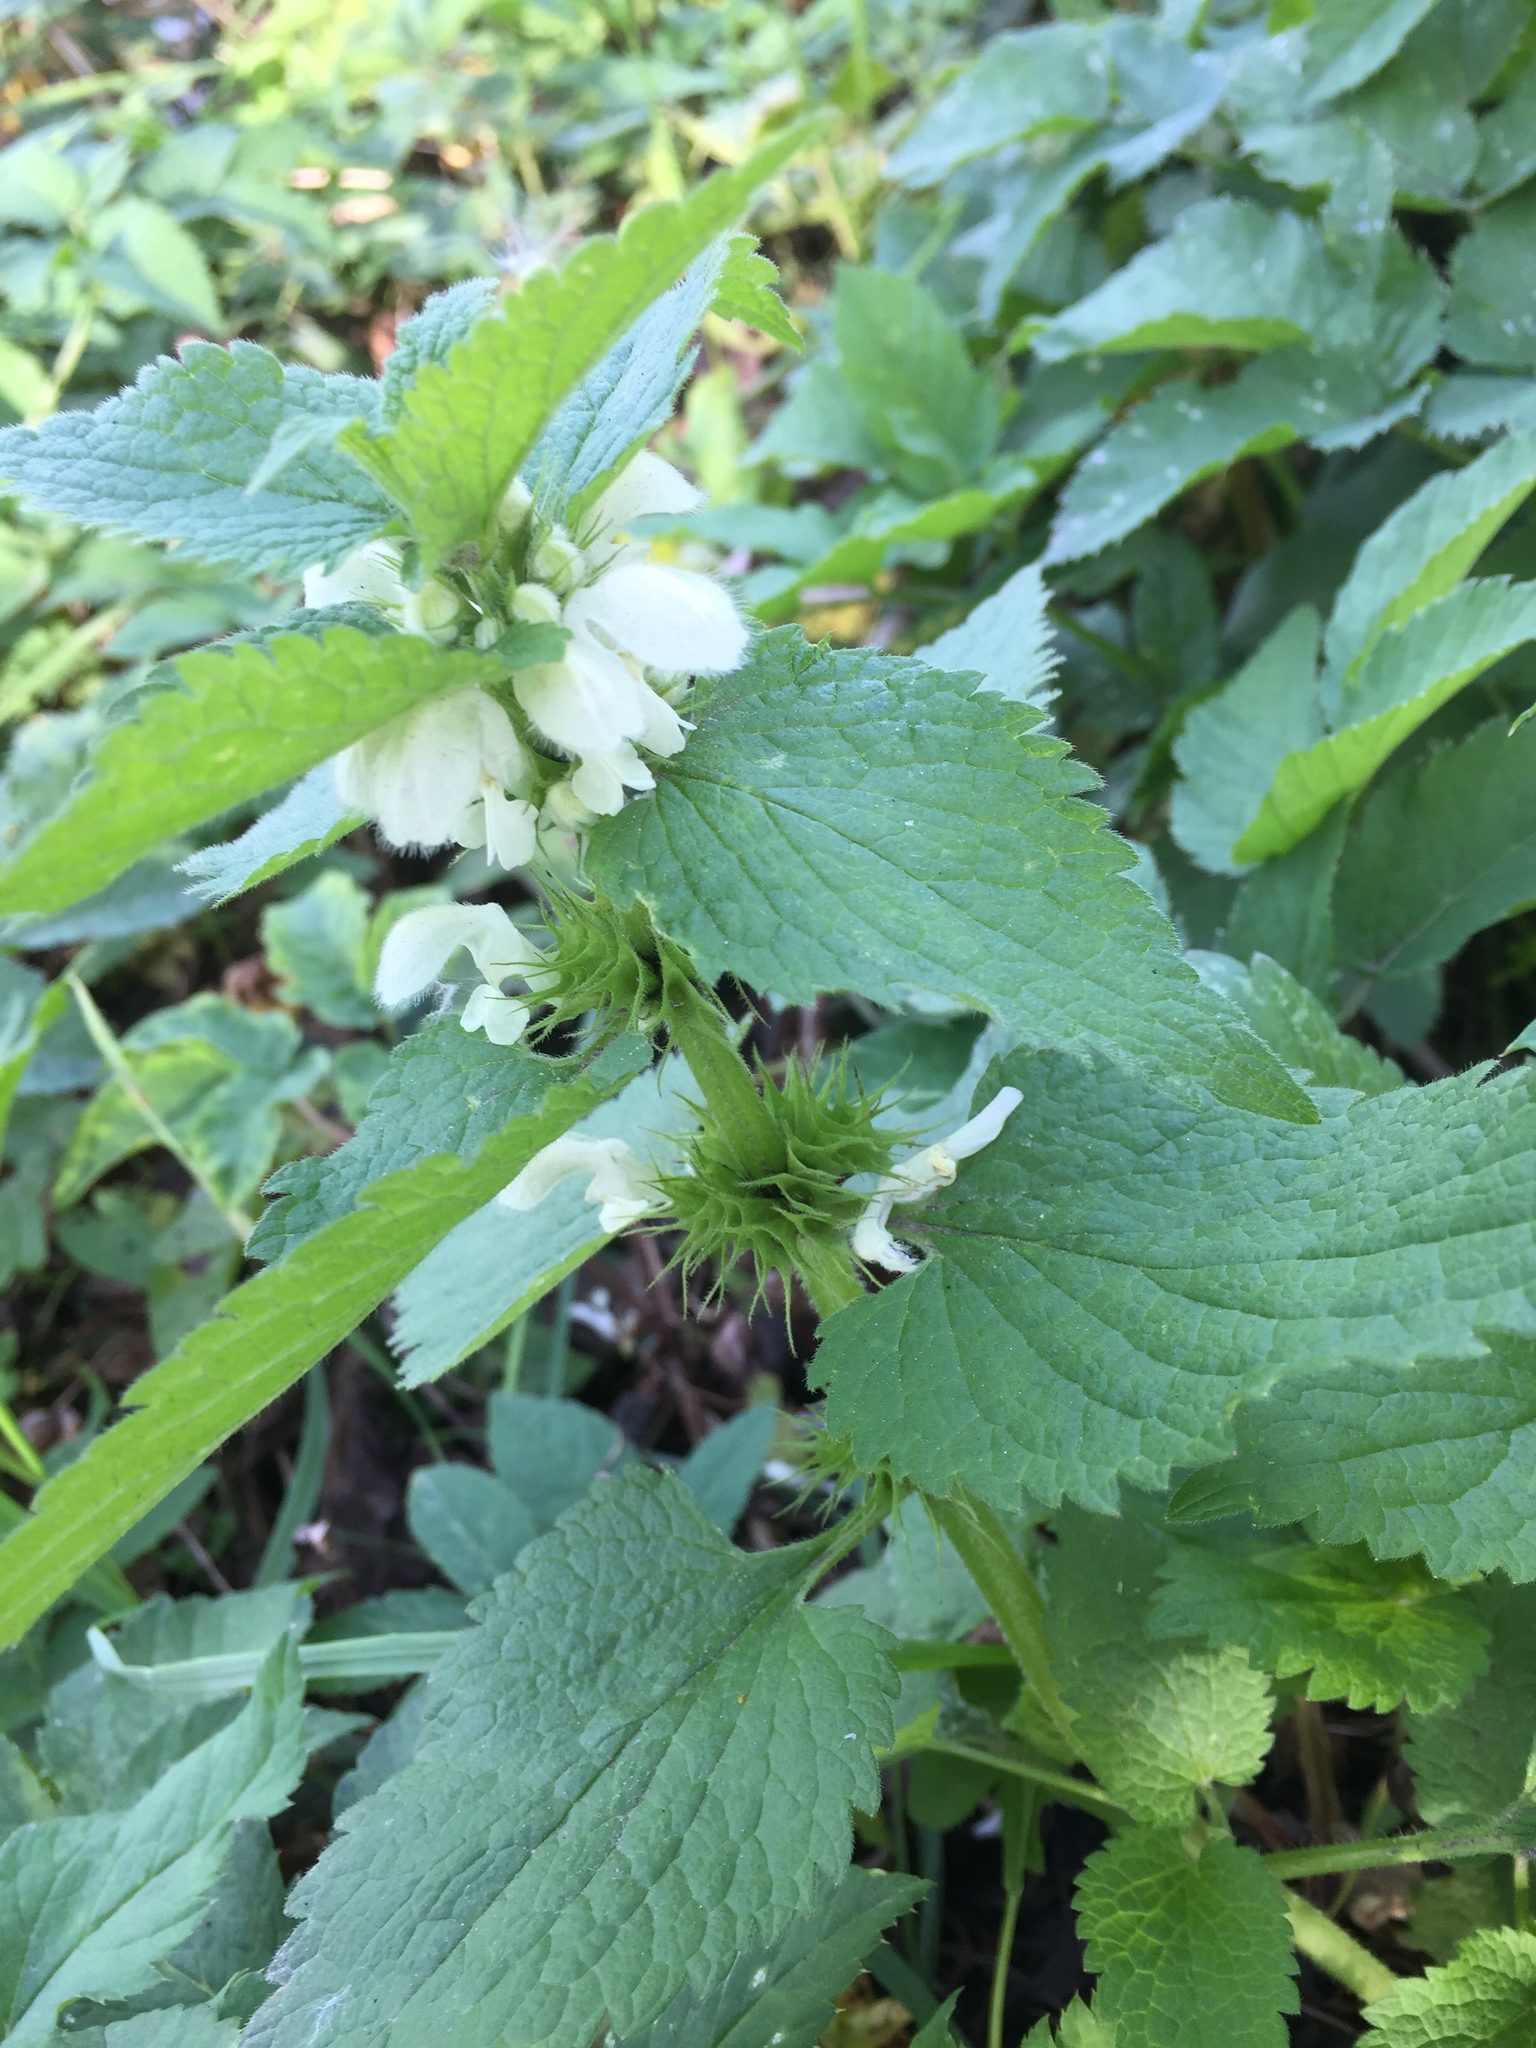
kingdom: Plantae
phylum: Tracheophyta
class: Magnoliopsida
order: Lamiales
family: Lamiaceae
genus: Lamium
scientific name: Lamium album
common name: White dead-nettle
